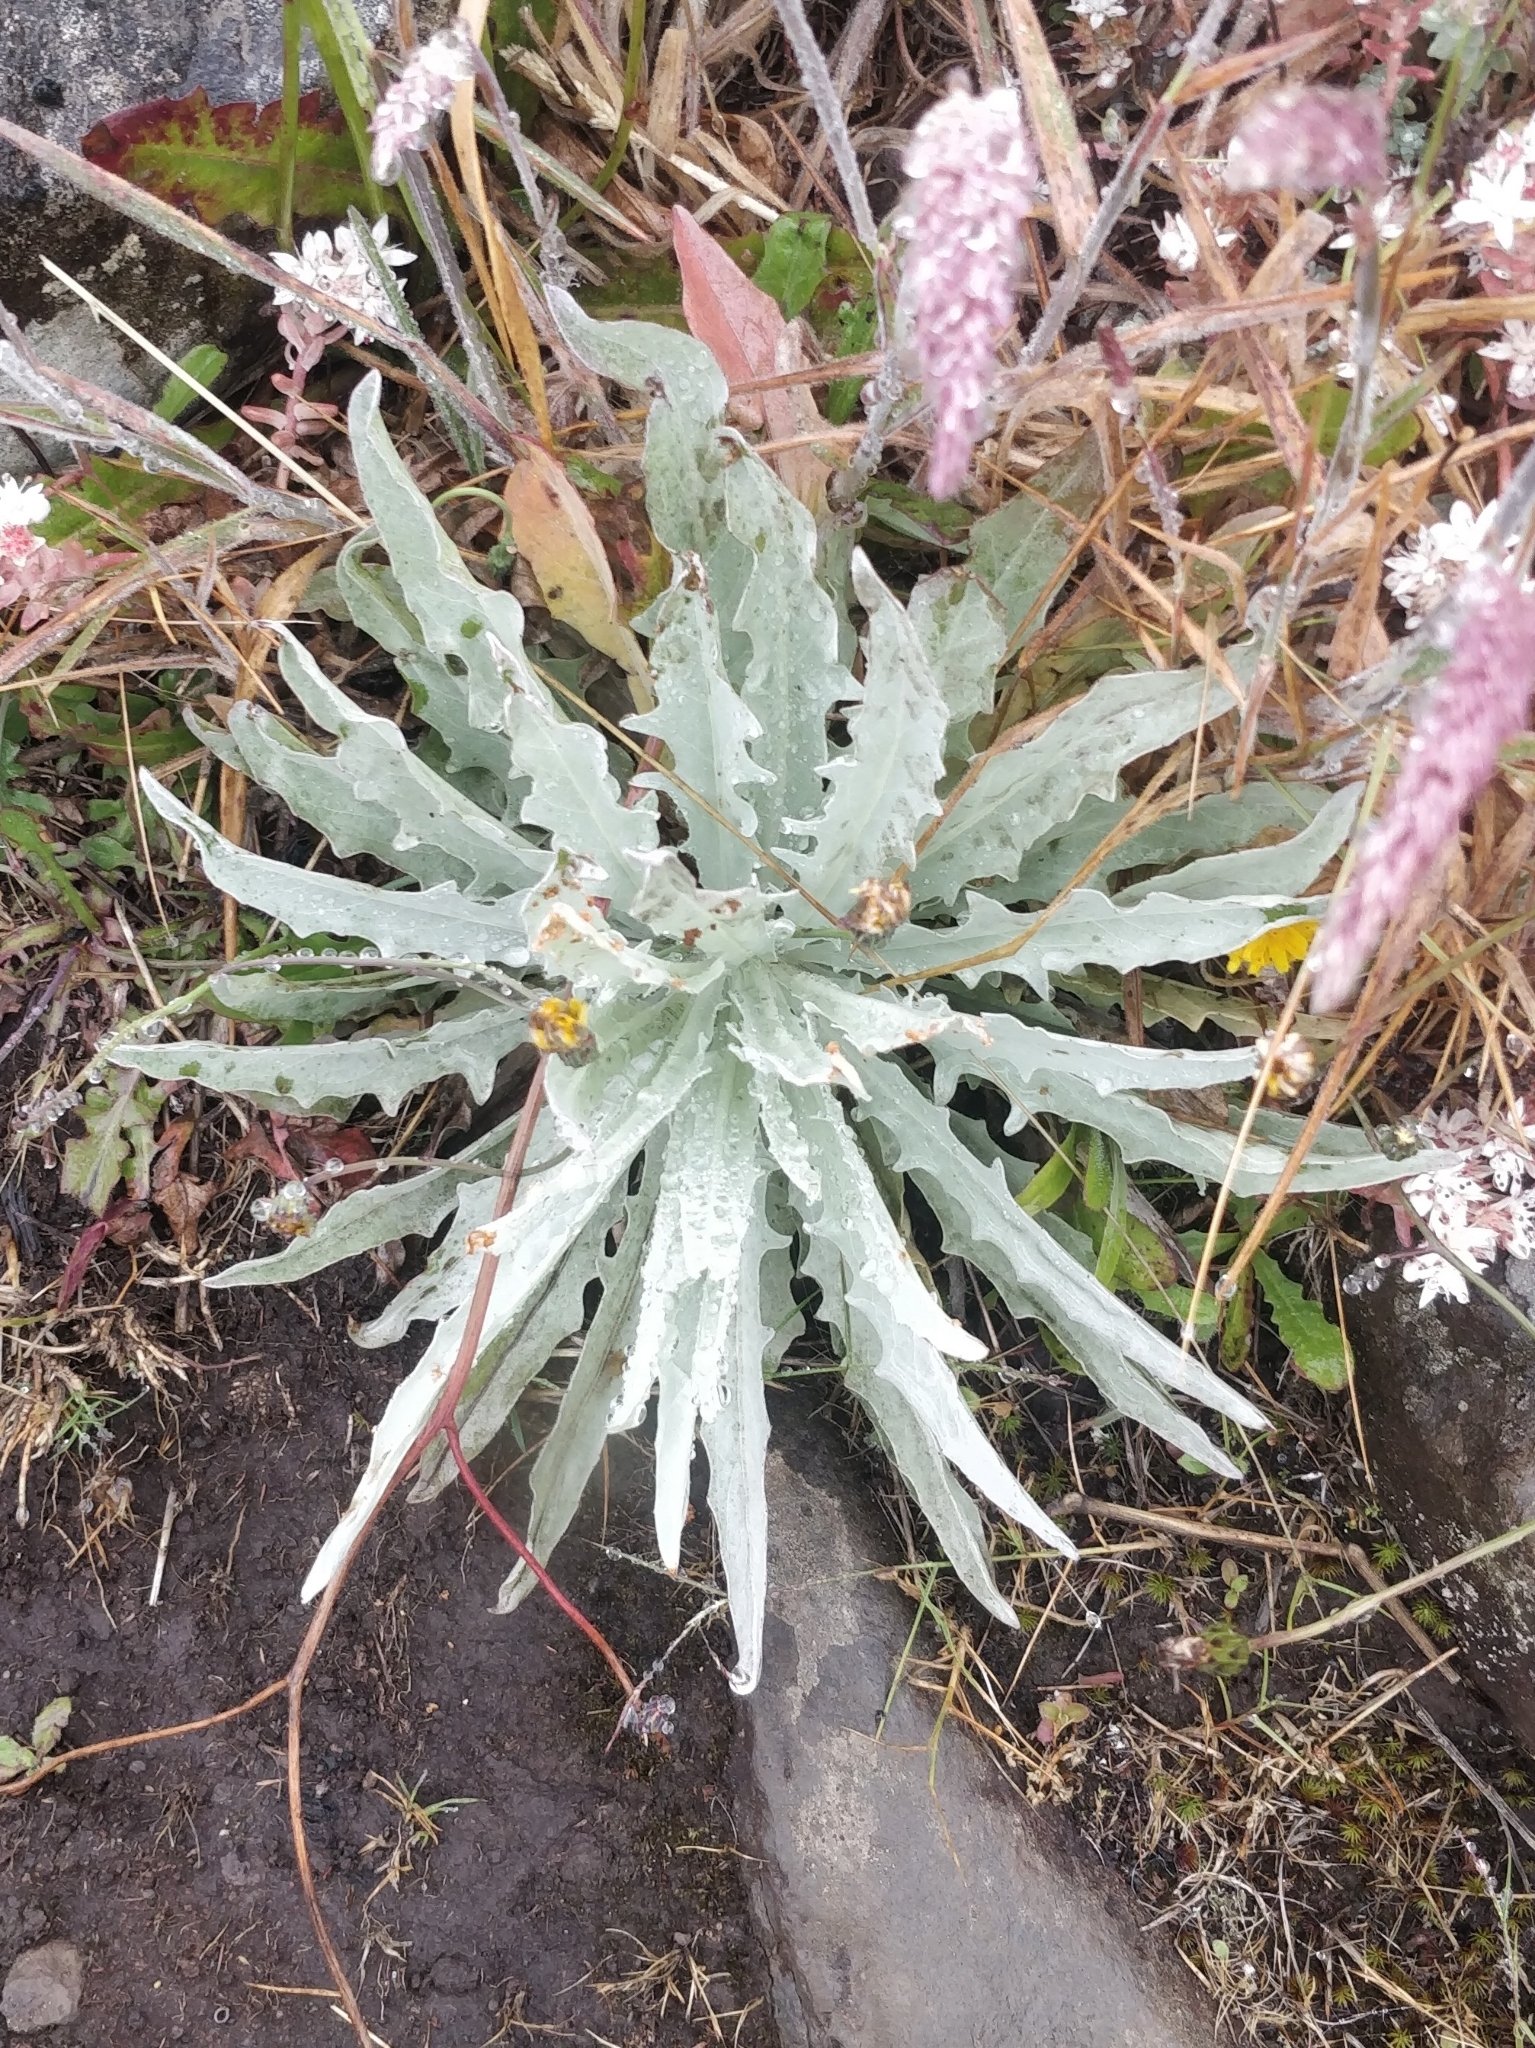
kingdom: Plantae
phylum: Tracheophyta
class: Magnoliopsida
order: Asterales
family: Asteraceae
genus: Andryala
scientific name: Andryala glandulosa
